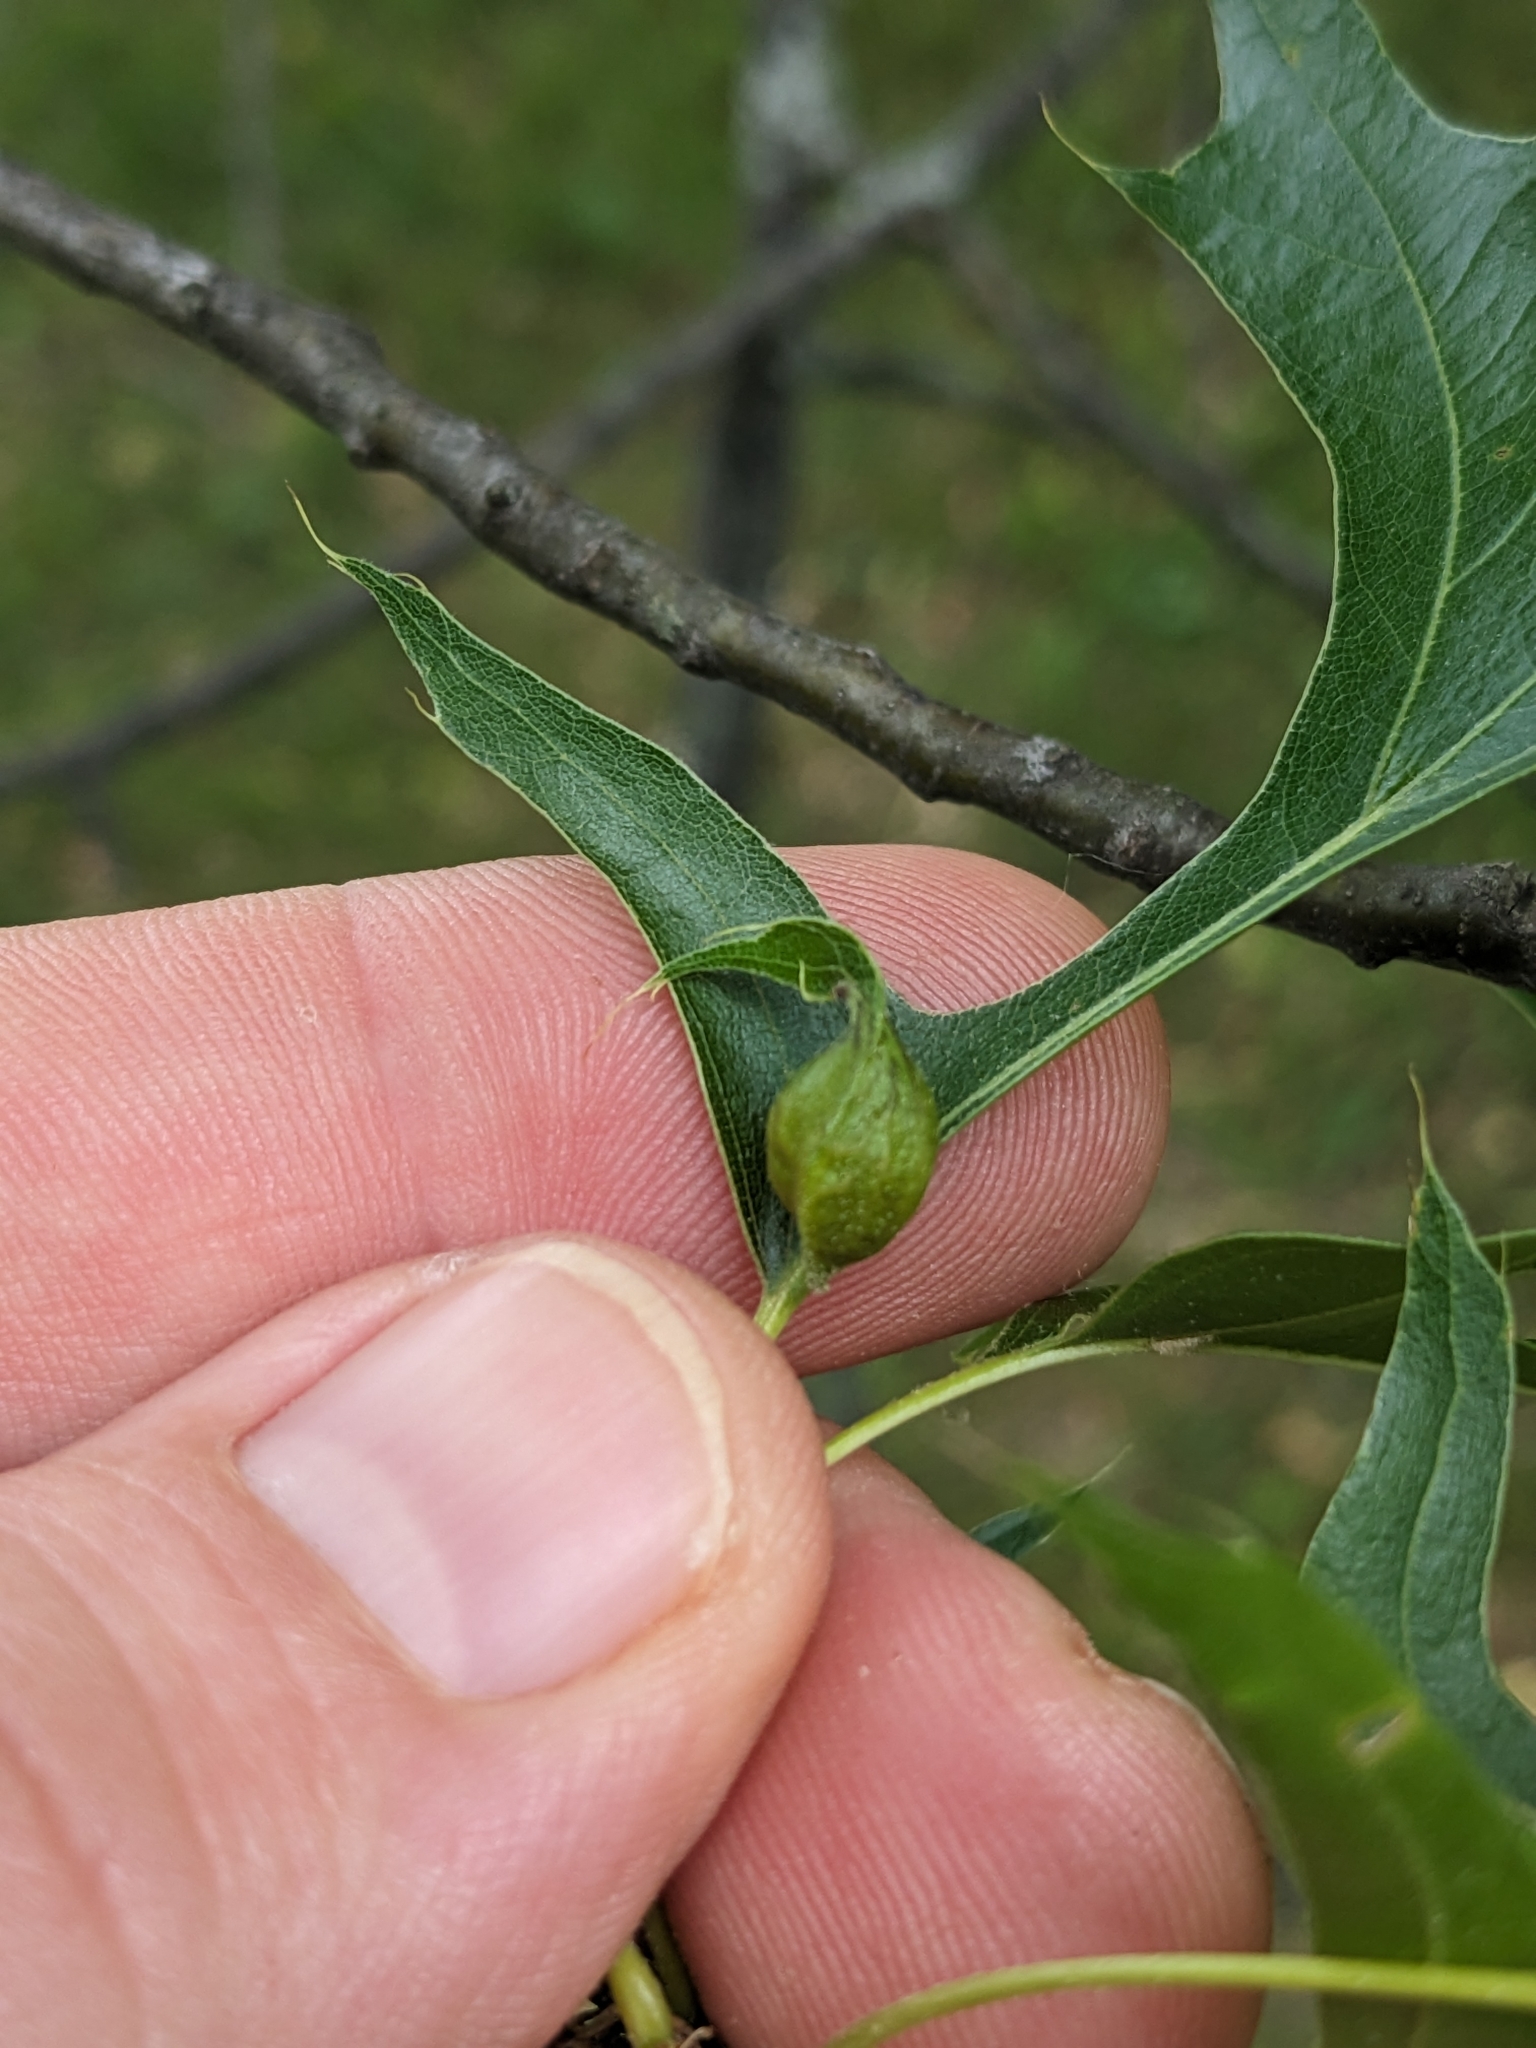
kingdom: Animalia
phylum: Arthropoda
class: Insecta
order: Hymenoptera
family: Cynipidae
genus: Dryocosmus
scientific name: Dryocosmus
